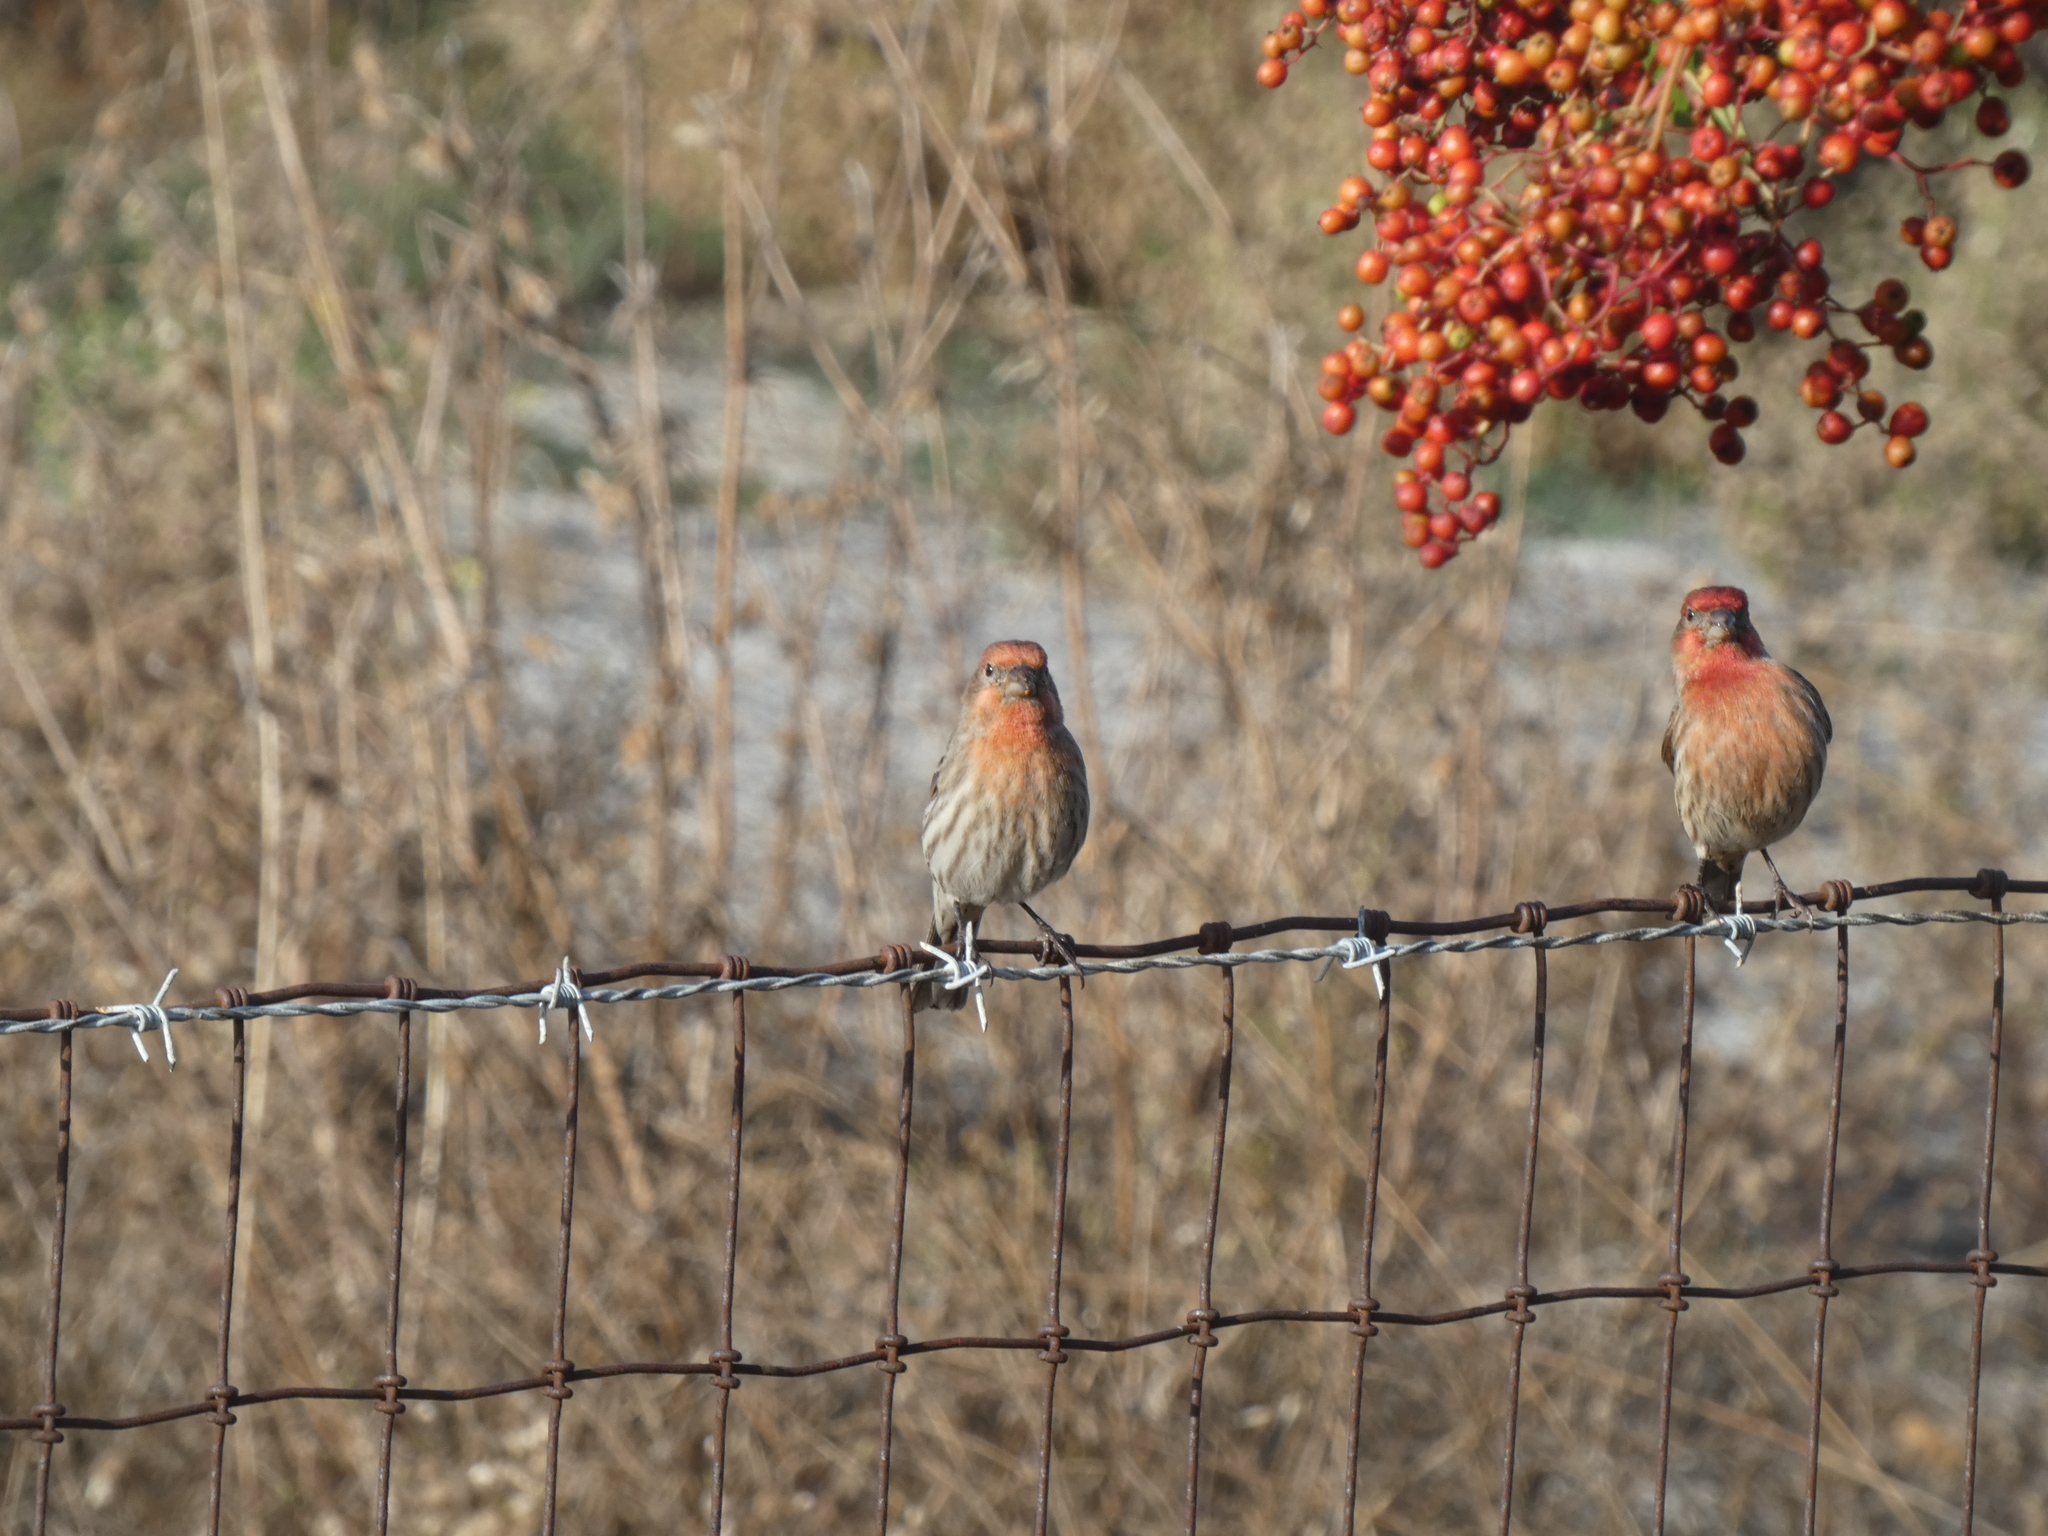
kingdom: Animalia
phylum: Chordata
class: Aves
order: Passeriformes
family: Fringillidae
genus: Haemorhous
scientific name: Haemorhous mexicanus
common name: House finch
